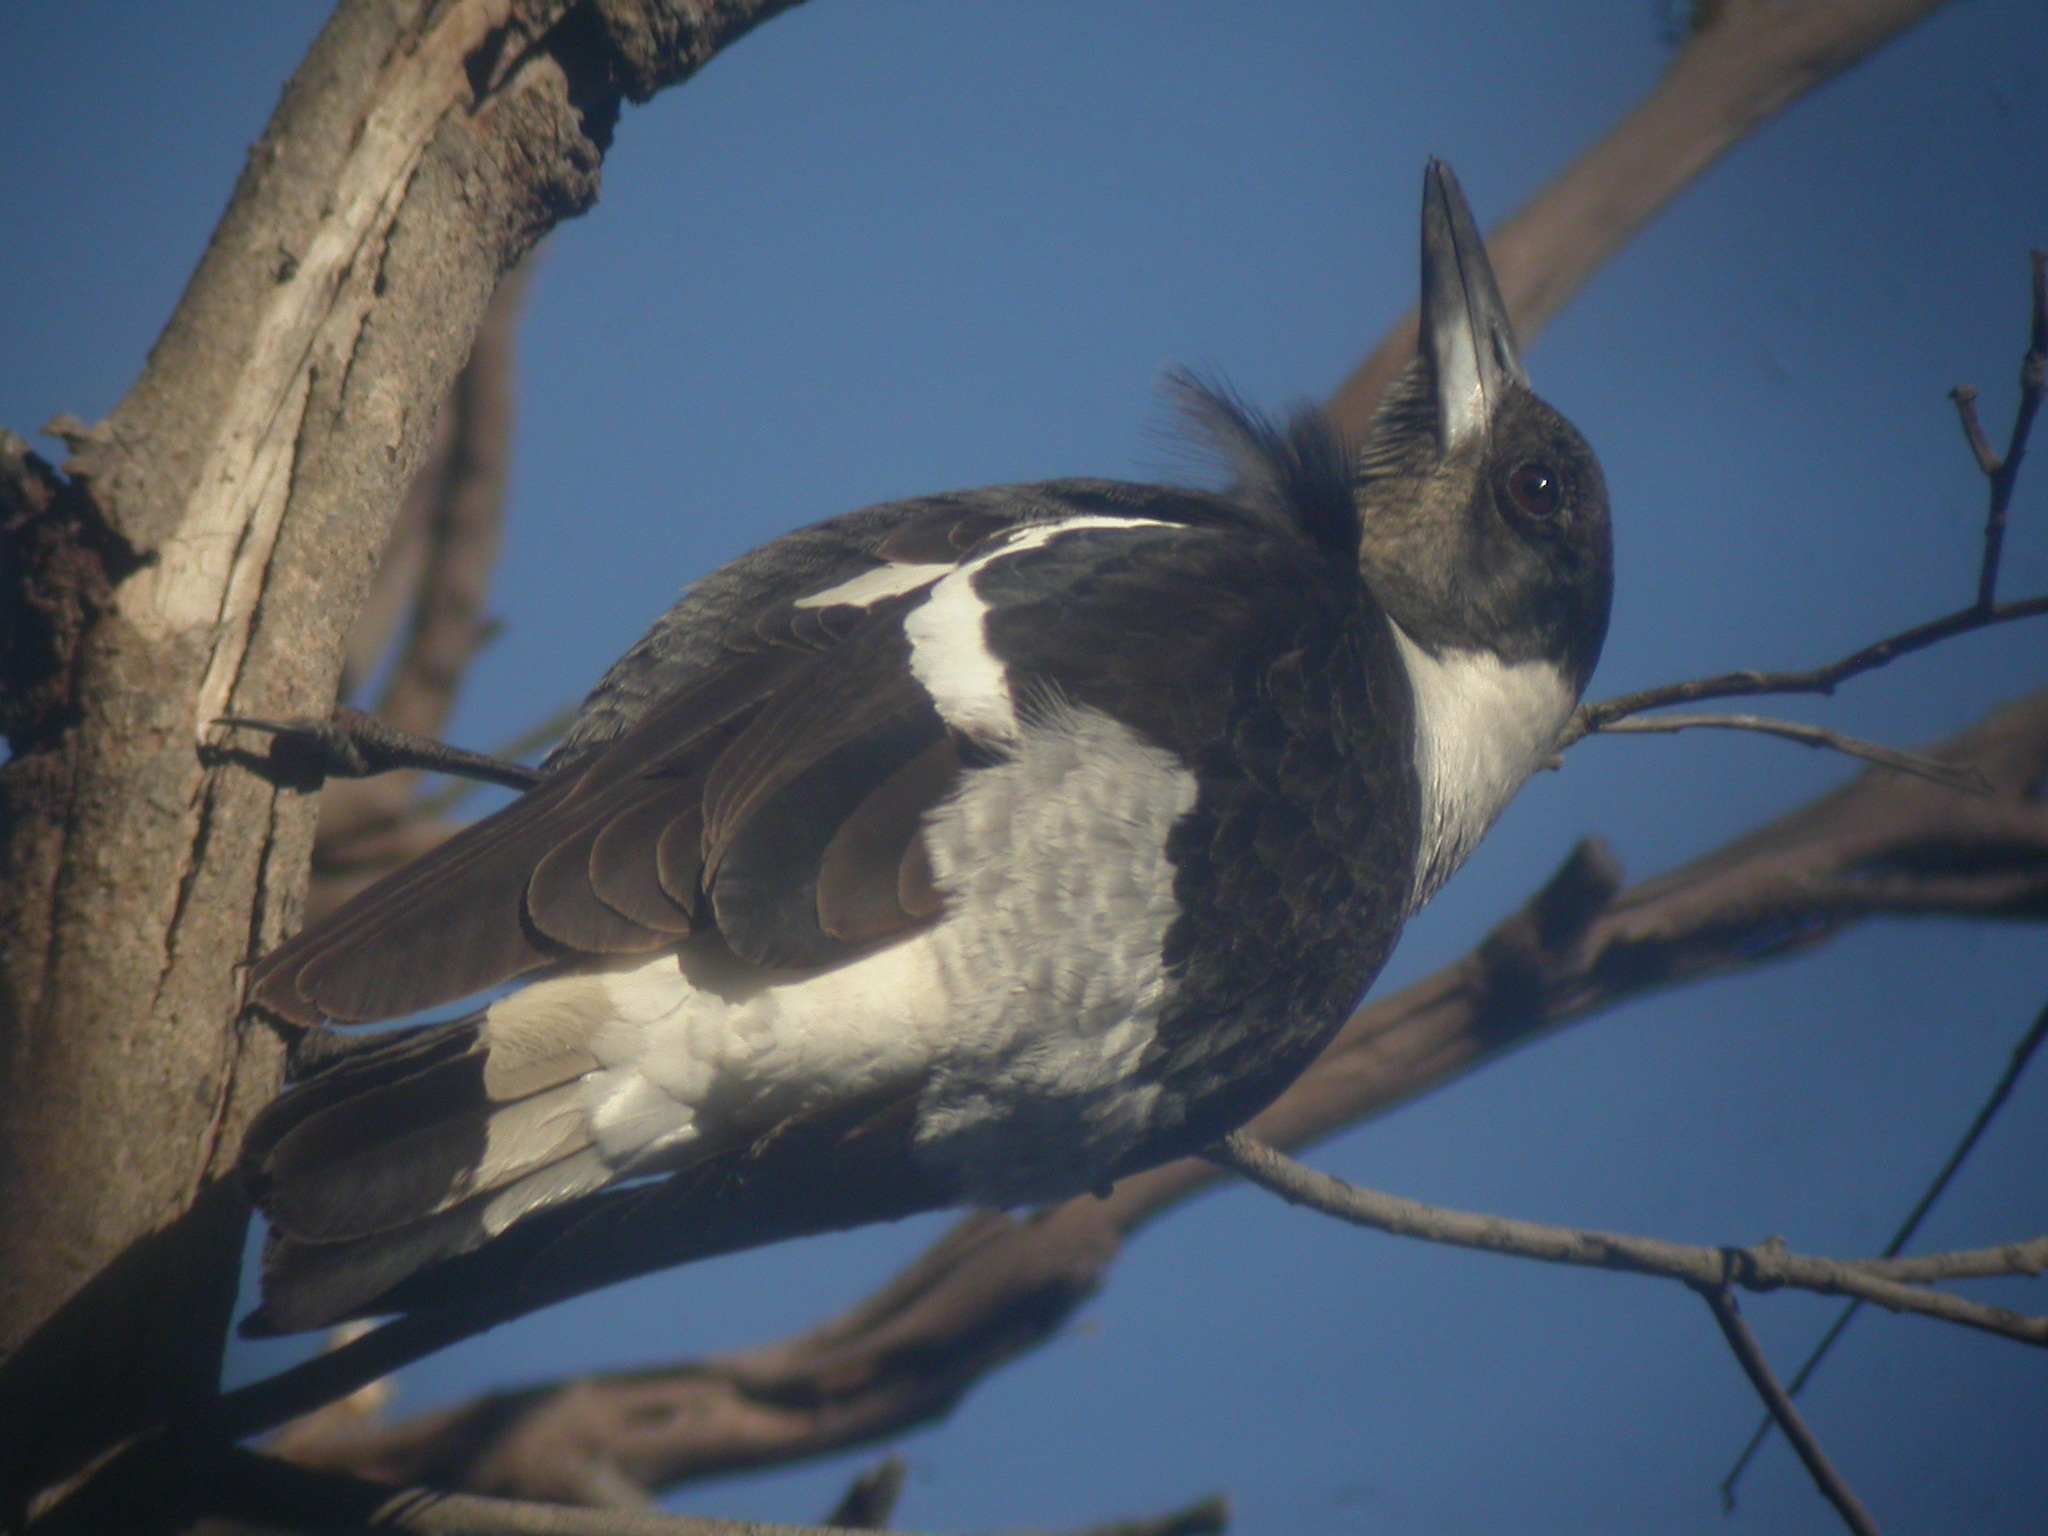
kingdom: Animalia
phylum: Chordata
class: Aves
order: Passeriformes
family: Cracticidae
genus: Gymnorhina
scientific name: Gymnorhina tibicen
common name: Australian magpie
